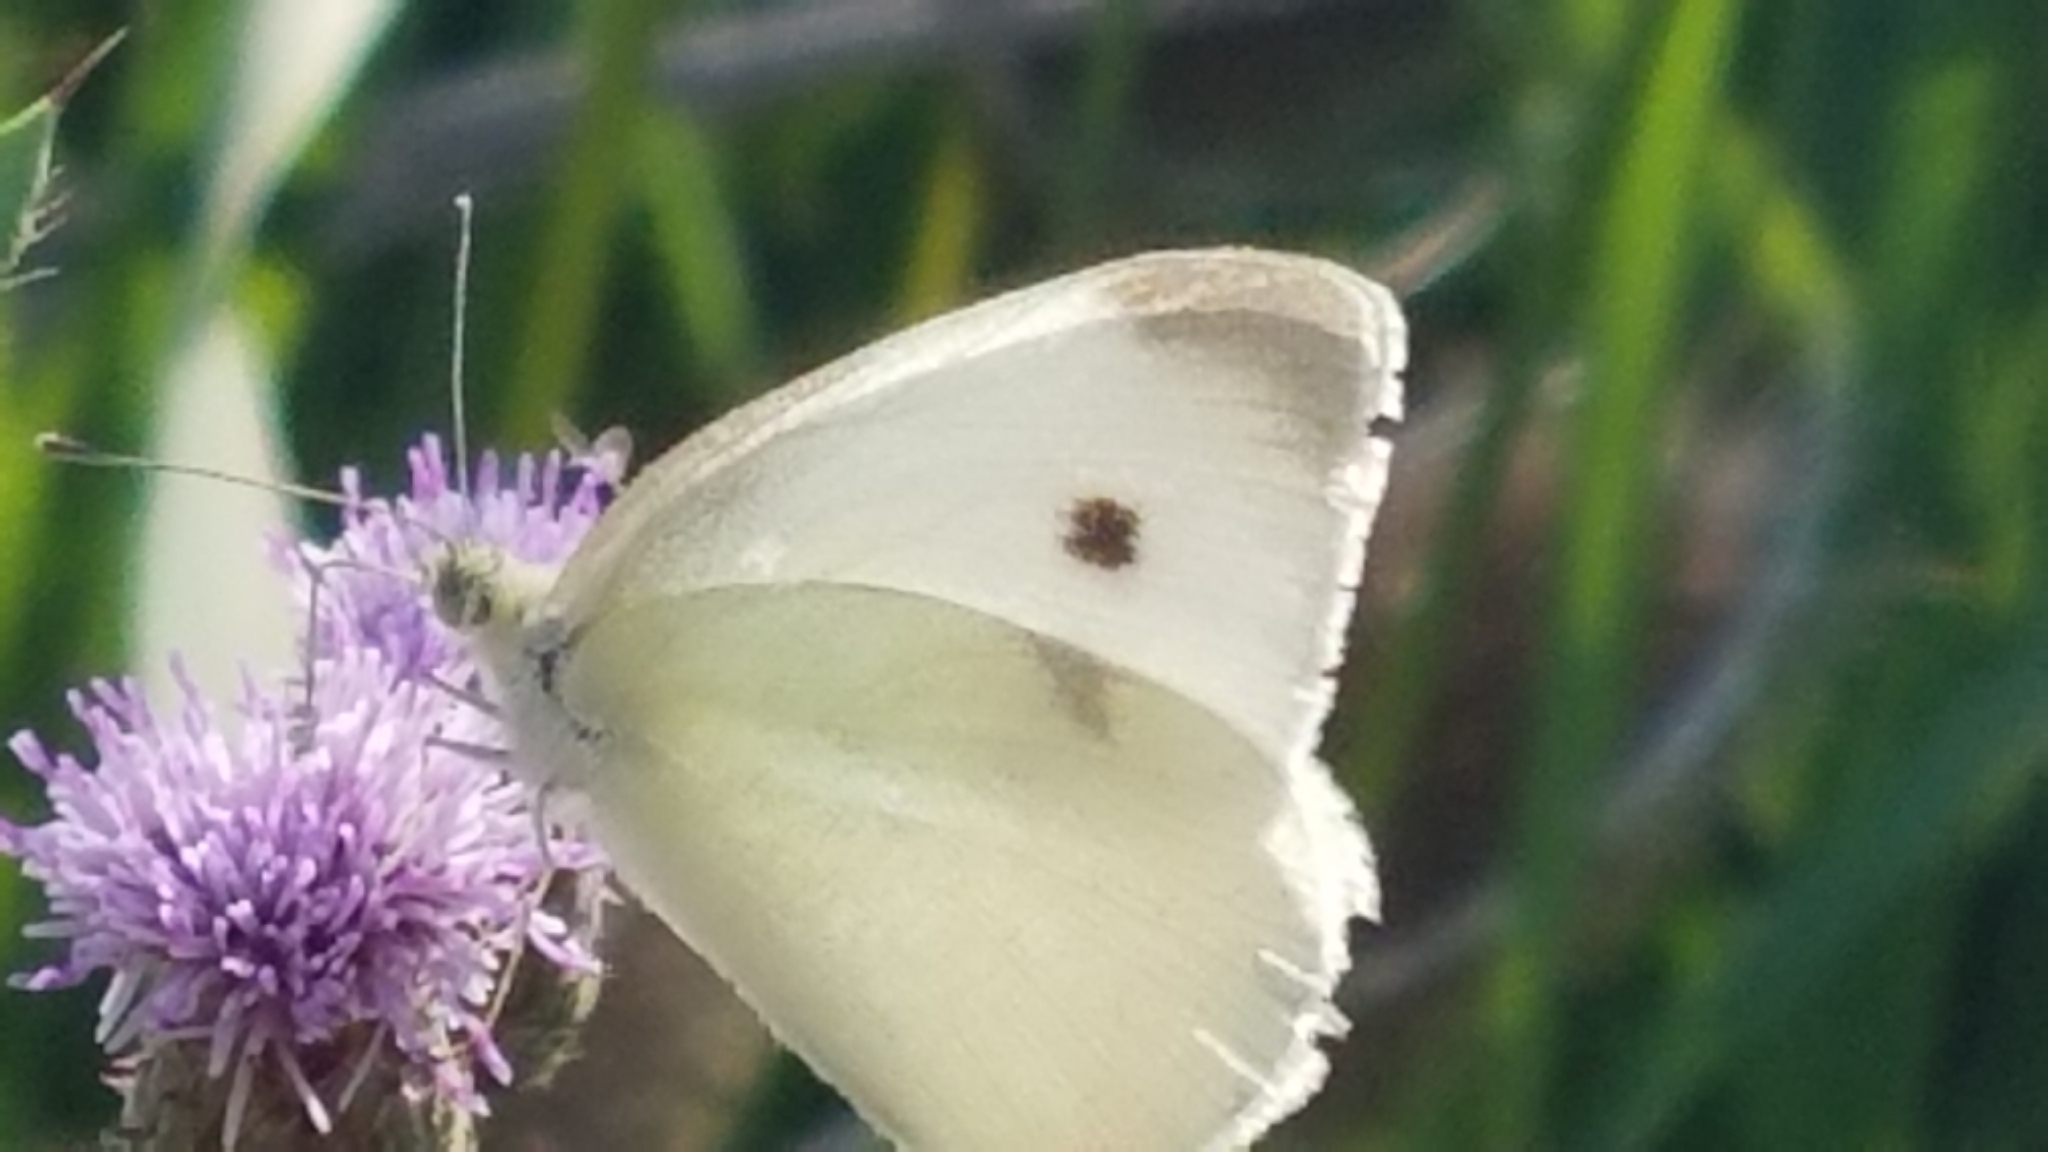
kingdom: Animalia
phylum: Arthropoda
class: Insecta
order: Lepidoptera
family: Pieridae
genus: Pieris
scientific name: Pieris rapae
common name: Small white
